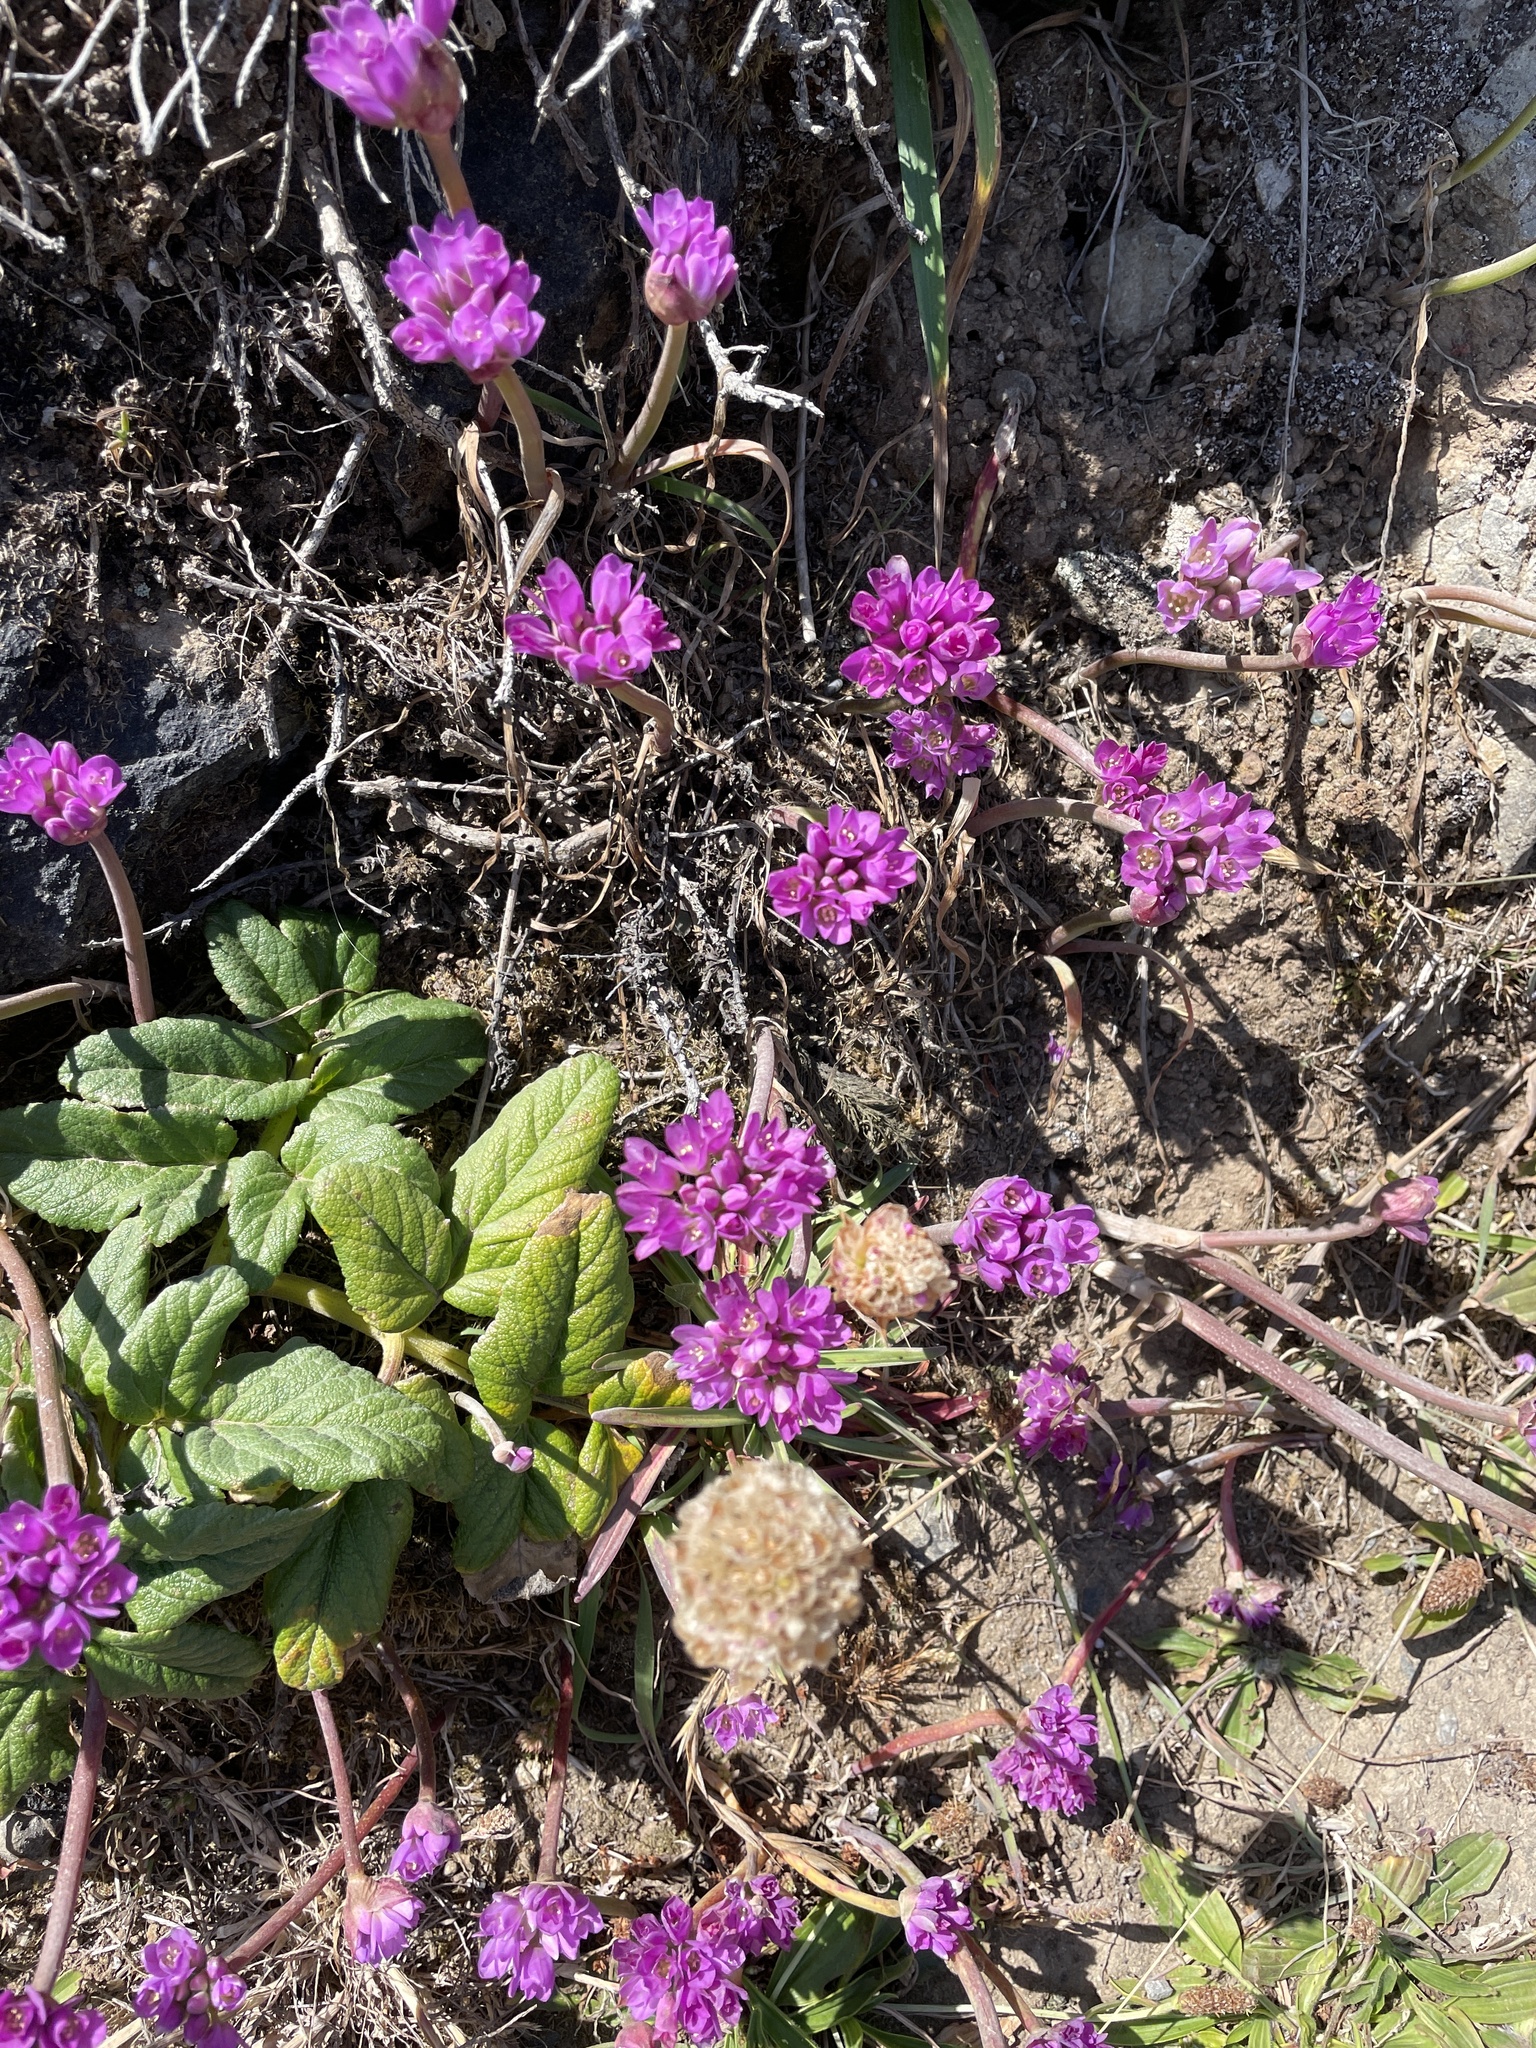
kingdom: Plantae
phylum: Tracheophyta
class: Liliopsida
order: Asparagales
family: Amaryllidaceae
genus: Allium
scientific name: Allium dichlamydeum
